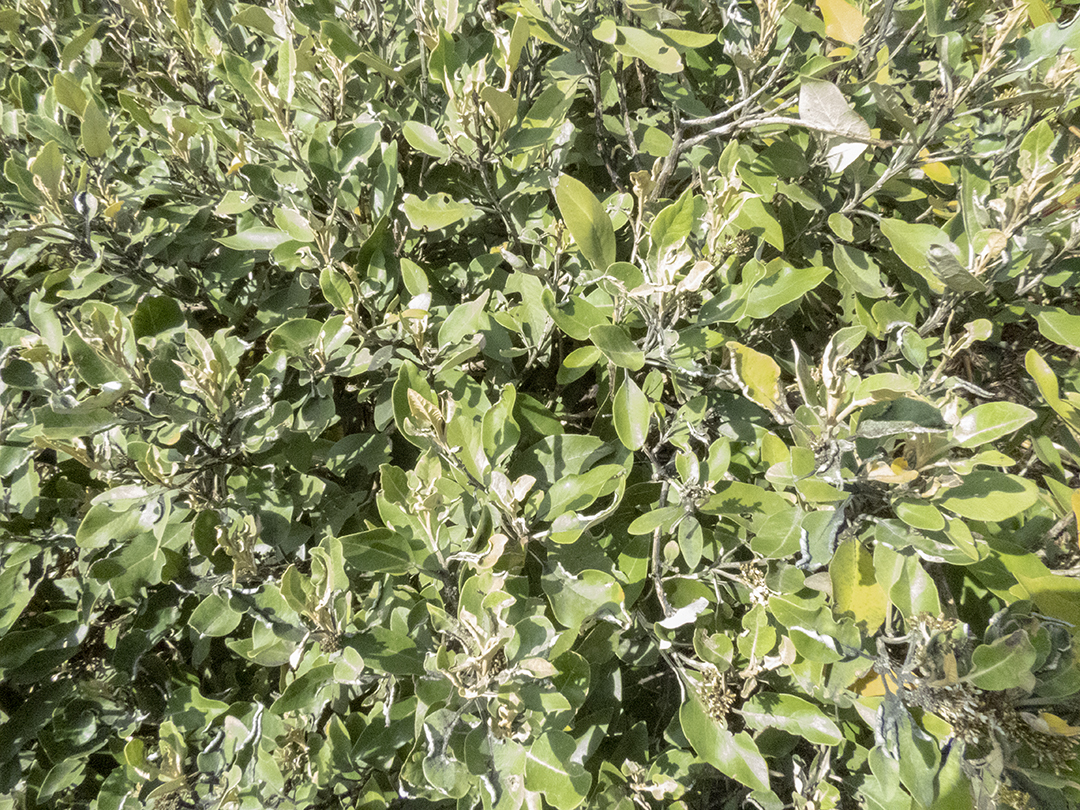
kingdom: Plantae
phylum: Tracheophyta
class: Magnoliopsida
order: Asterales
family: Asteraceae
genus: Olearia
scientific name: Olearia avicenniifolia
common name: Mangrove-leaf daisybush
